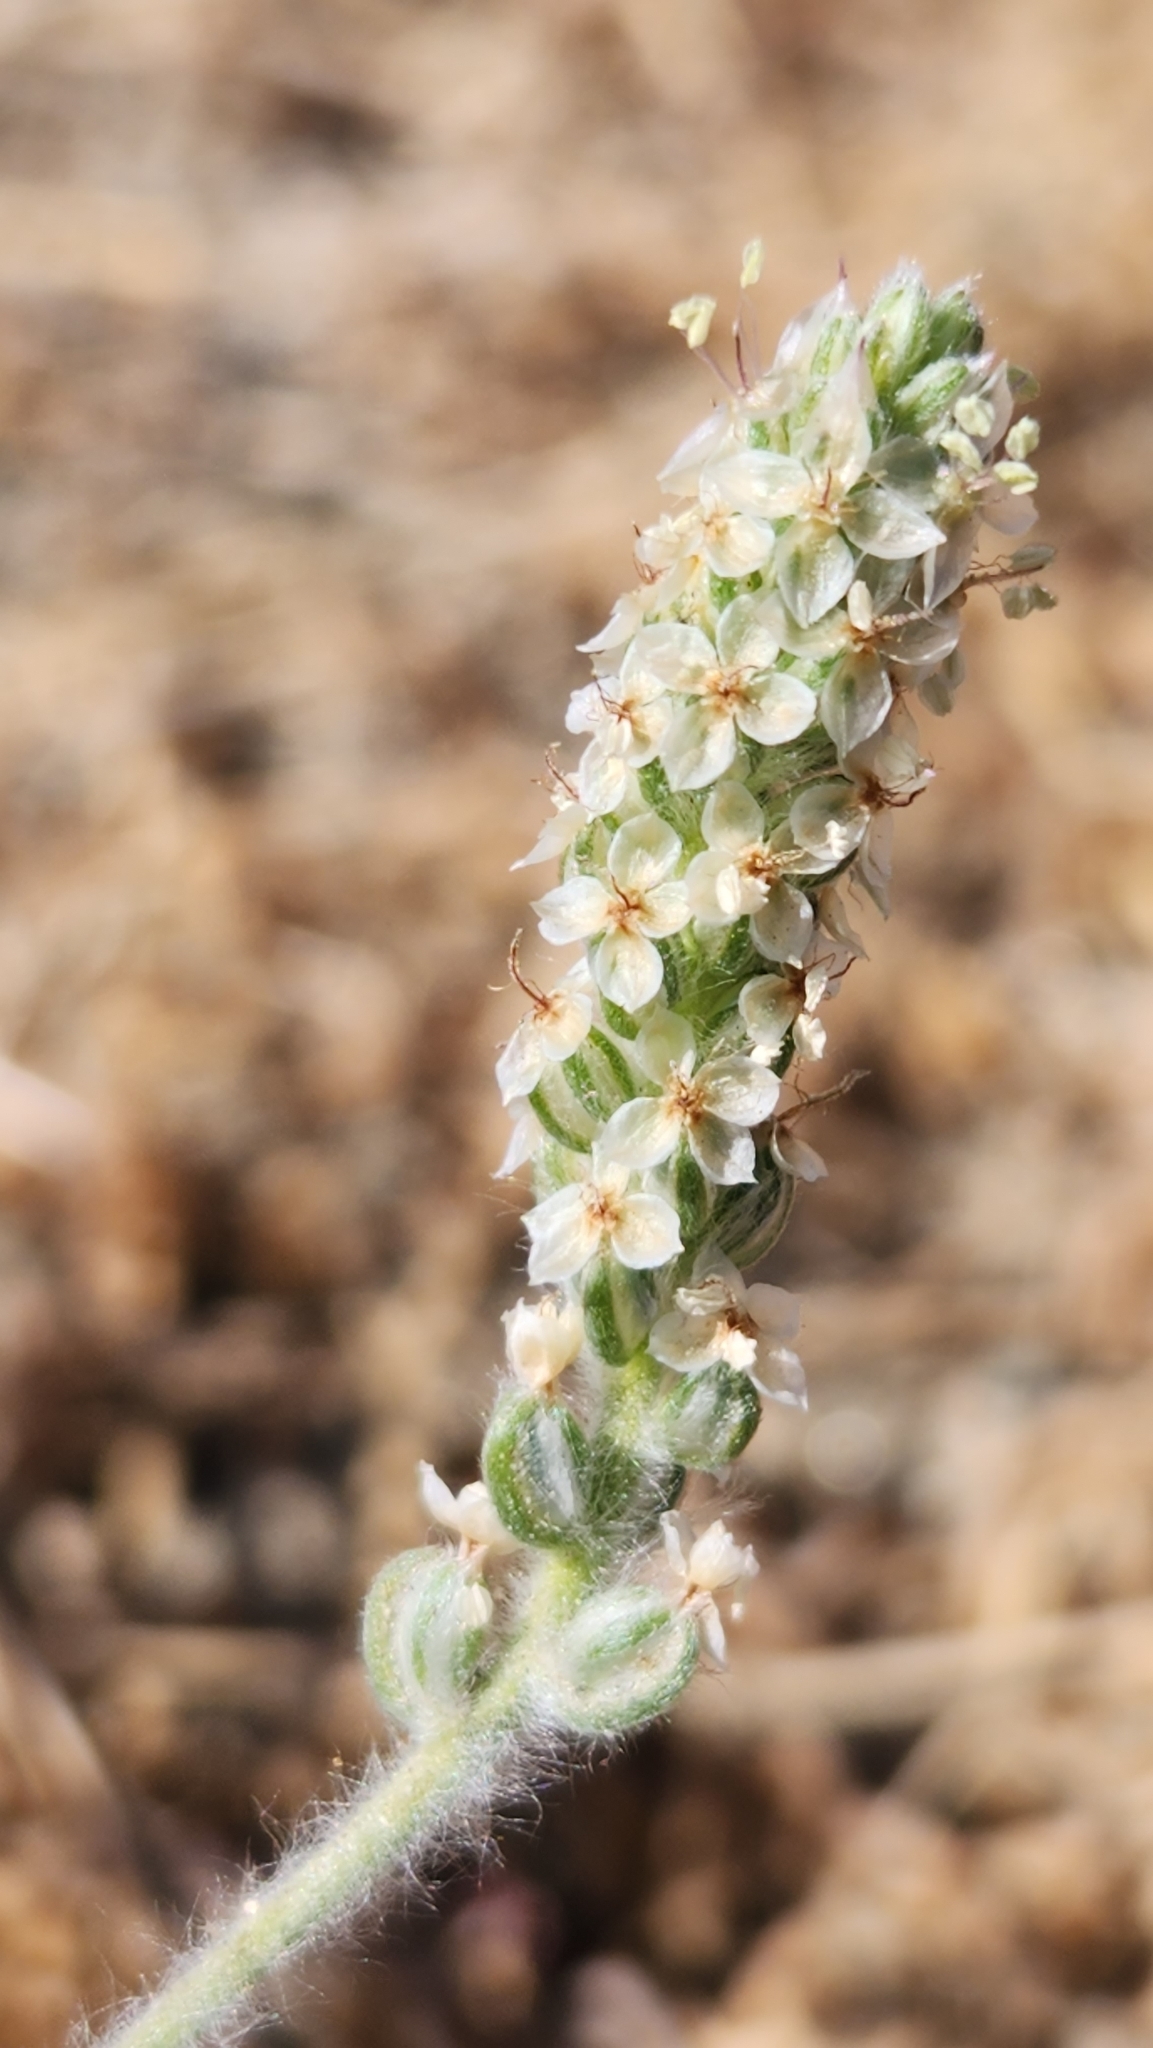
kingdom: Plantae
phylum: Tracheophyta
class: Magnoliopsida
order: Lamiales
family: Plantaginaceae
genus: Plantago
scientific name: Plantago ovata
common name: Blond plantain
